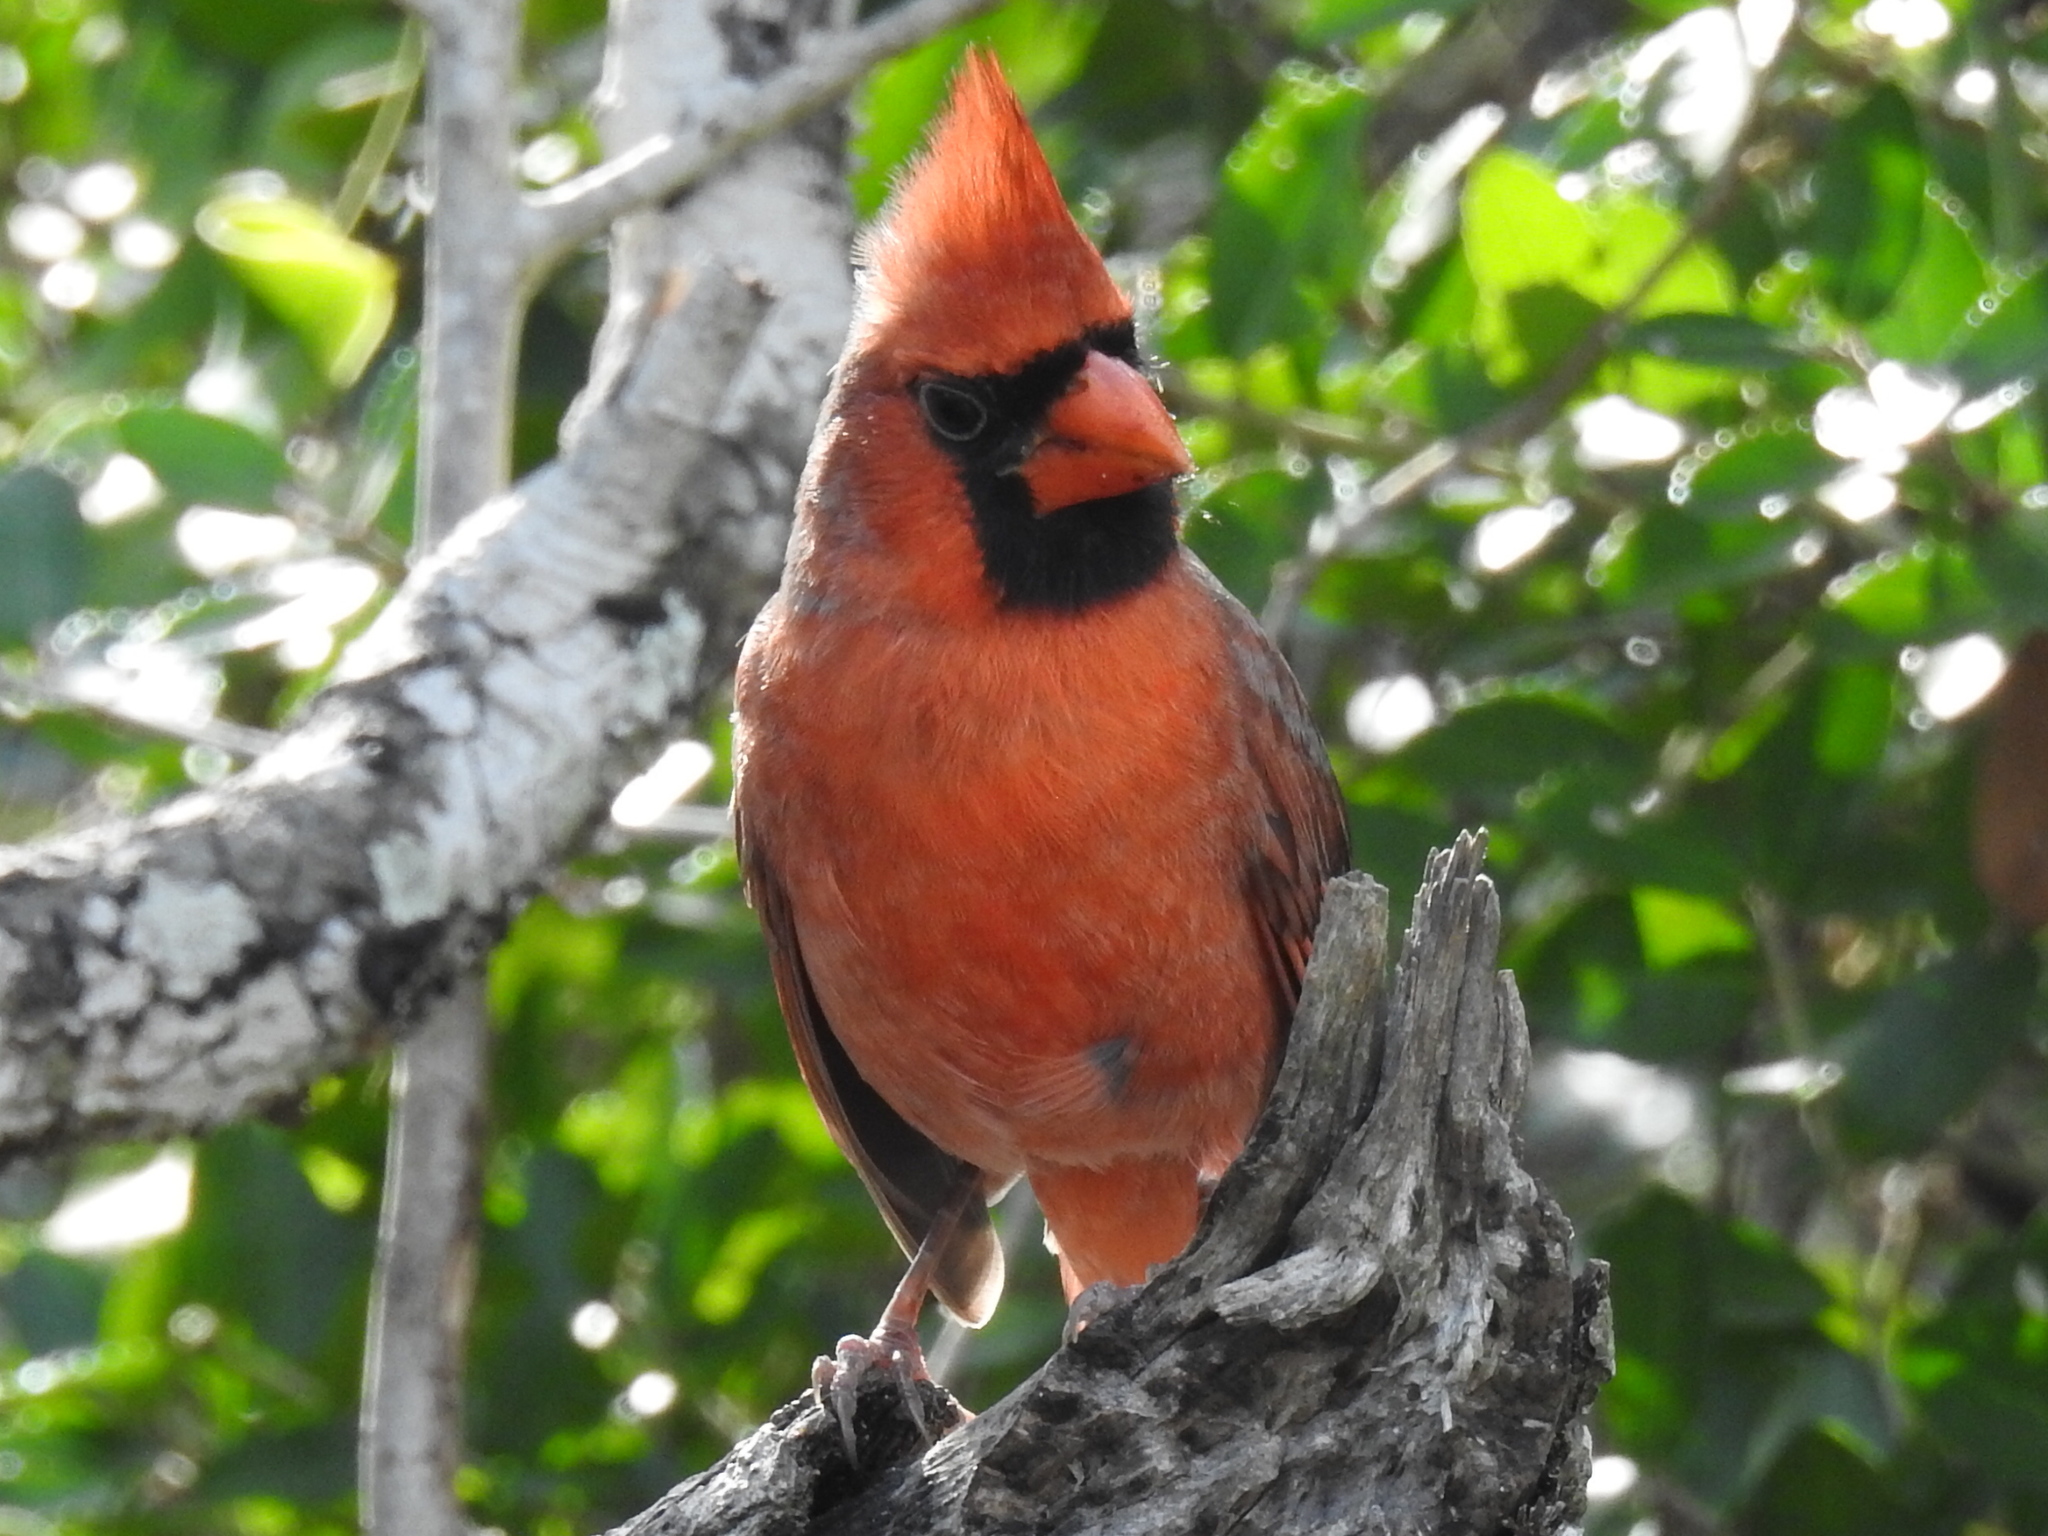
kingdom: Animalia
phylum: Chordata
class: Aves
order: Passeriformes
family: Cardinalidae
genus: Cardinalis
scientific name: Cardinalis cardinalis
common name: Northern cardinal
